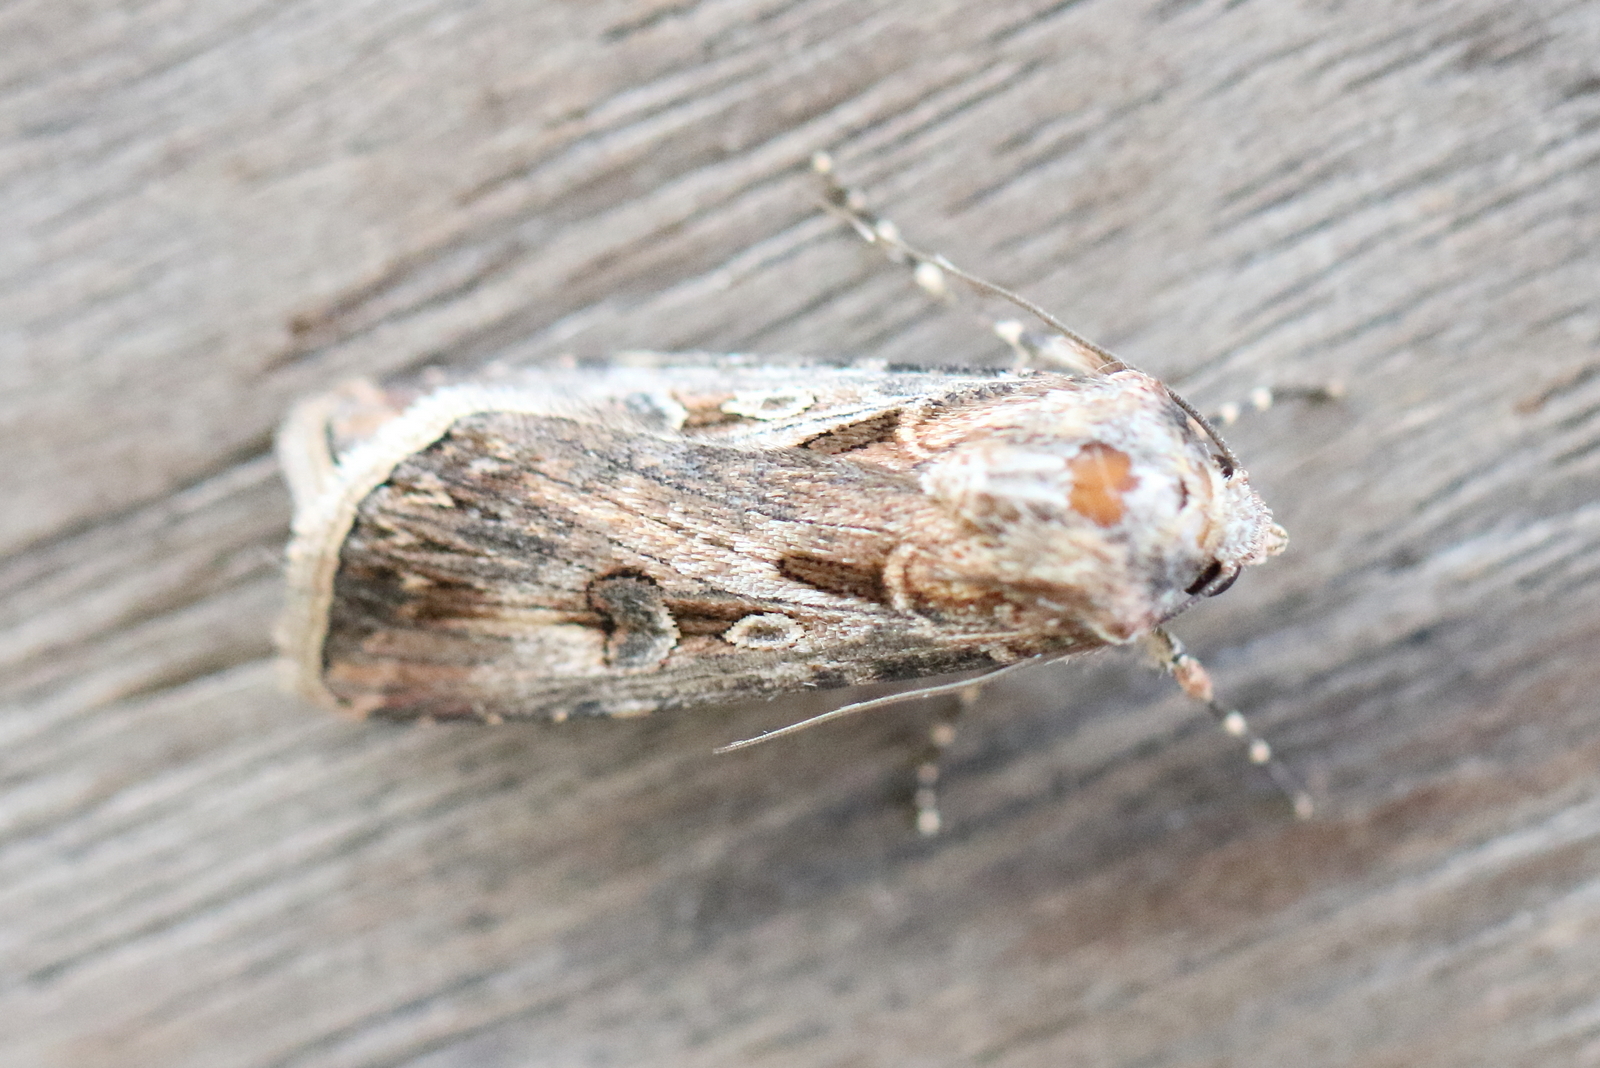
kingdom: Animalia
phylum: Arthropoda
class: Insecta
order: Lepidoptera
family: Noctuidae
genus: Agrotis
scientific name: Agrotis munda
